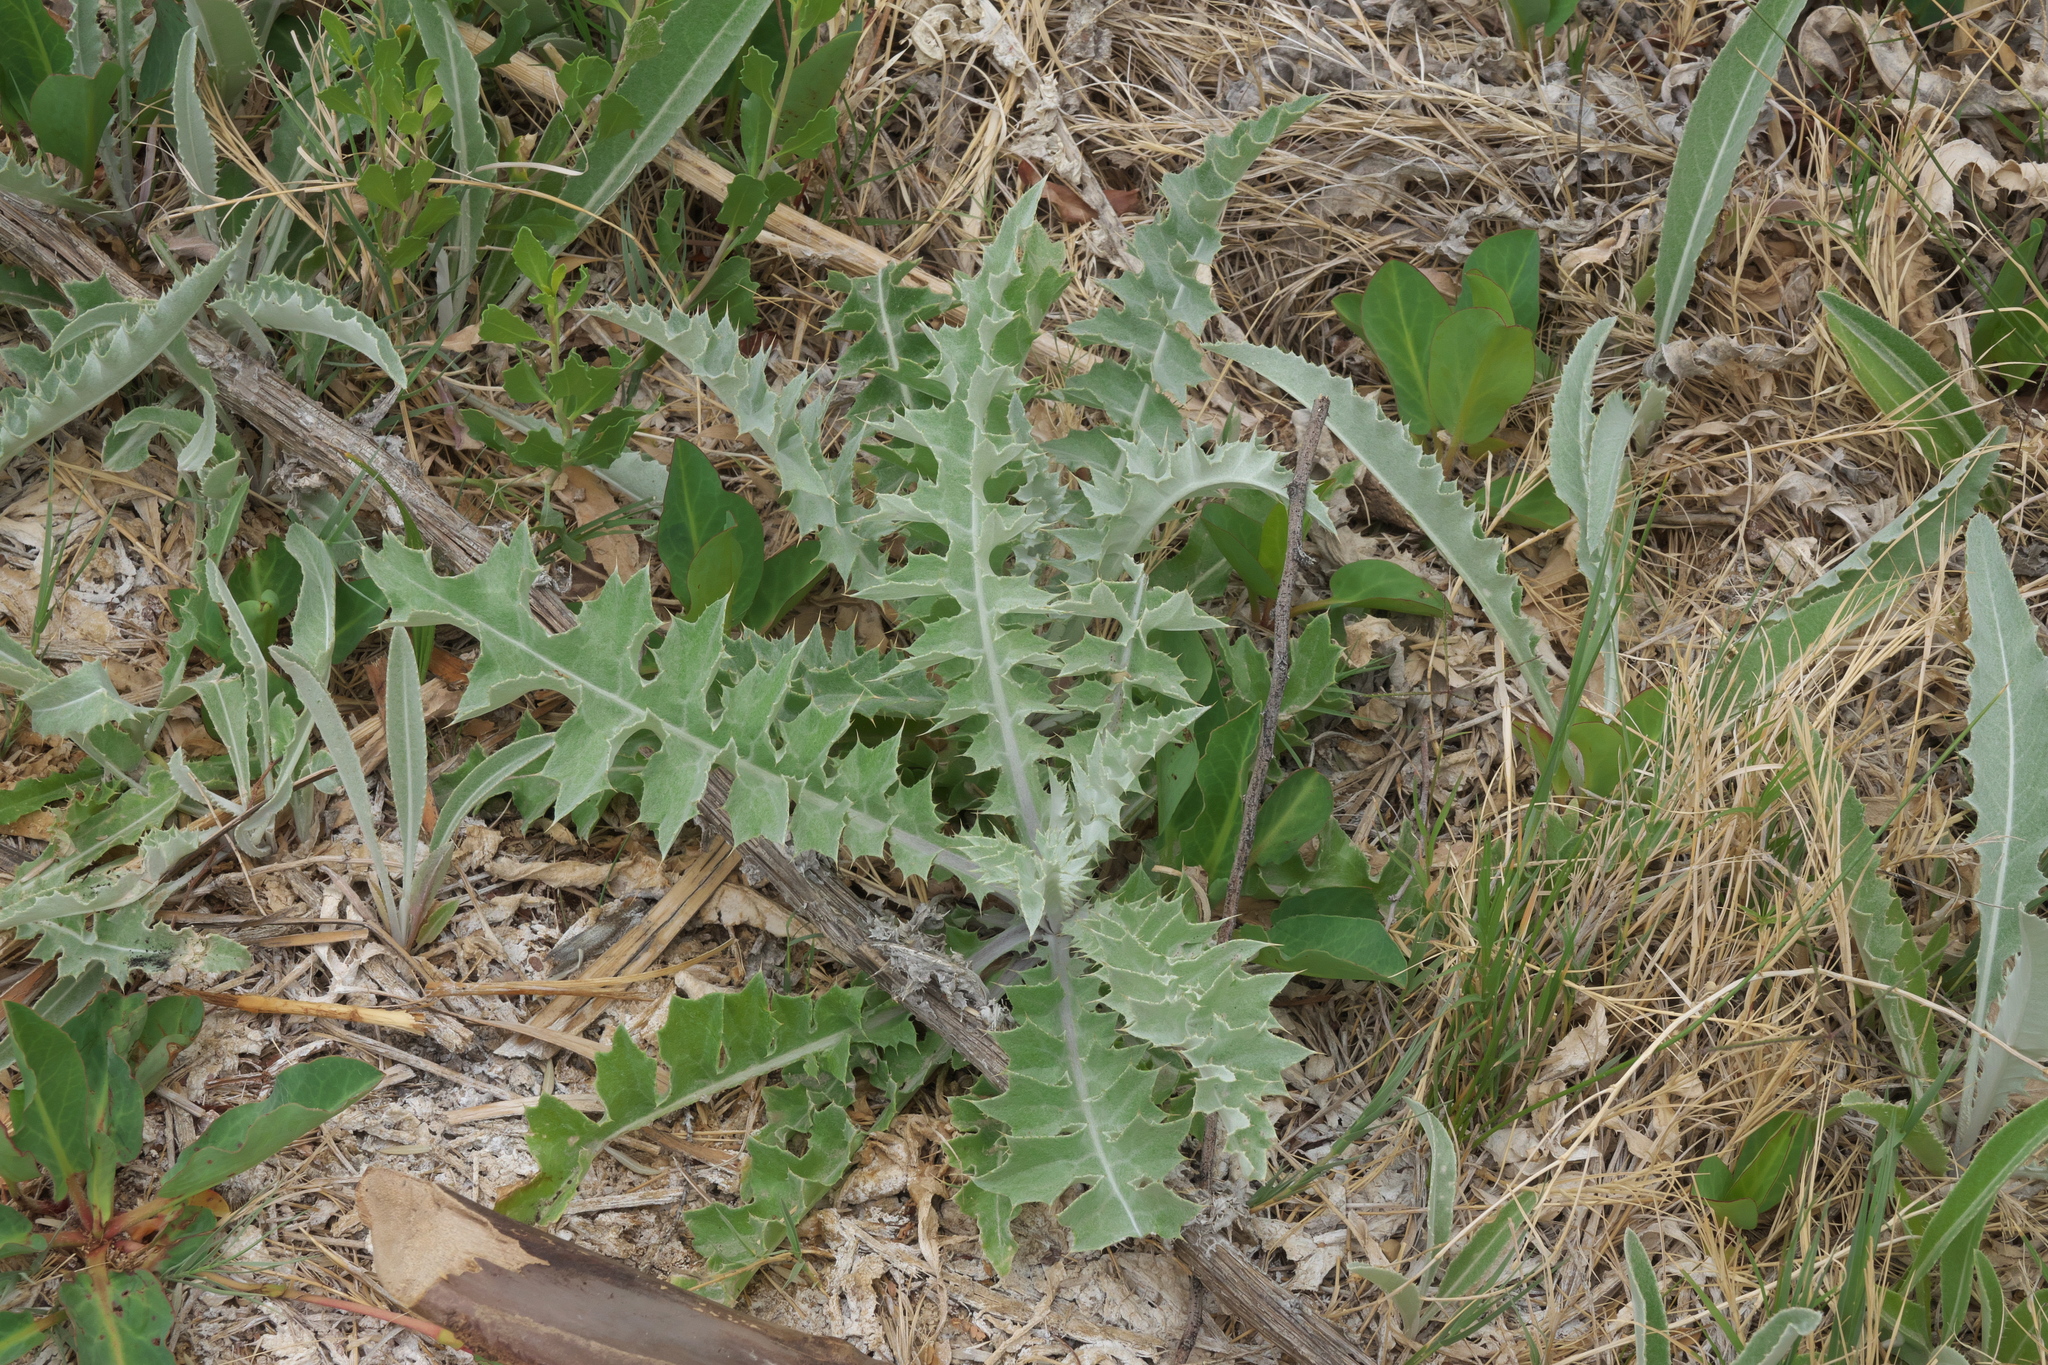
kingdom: Plantae
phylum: Tracheophyta
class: Magnoliopsida
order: Asterales
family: Asteraceae
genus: Cirsium
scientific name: Cirsium mohavense
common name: Mojave thistle
